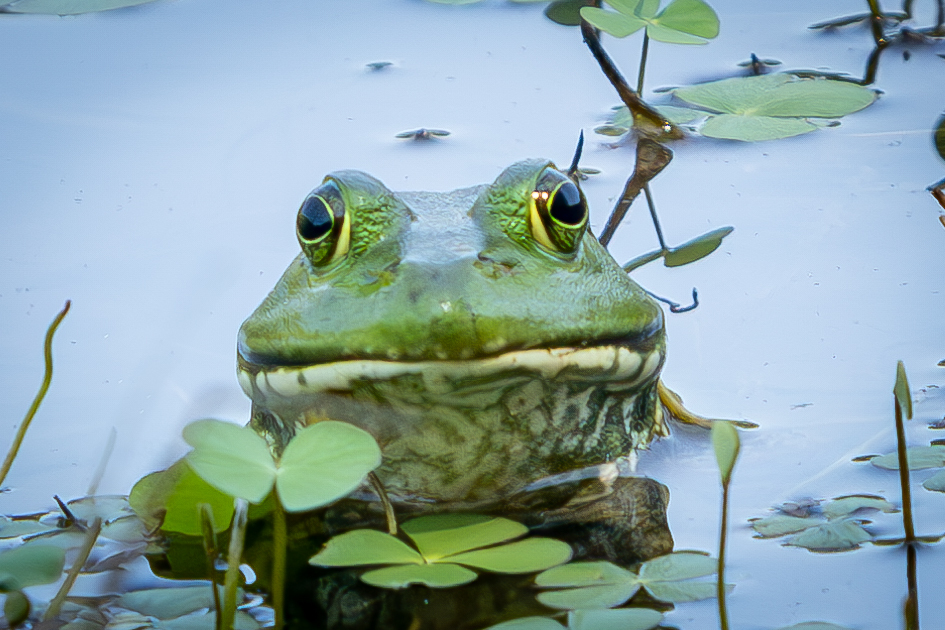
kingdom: Animalia
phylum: Chordata
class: Amphibia
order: Anura
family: Ranidae
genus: Lithobates
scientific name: Lithobates catesbeianus
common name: American bullfrog
